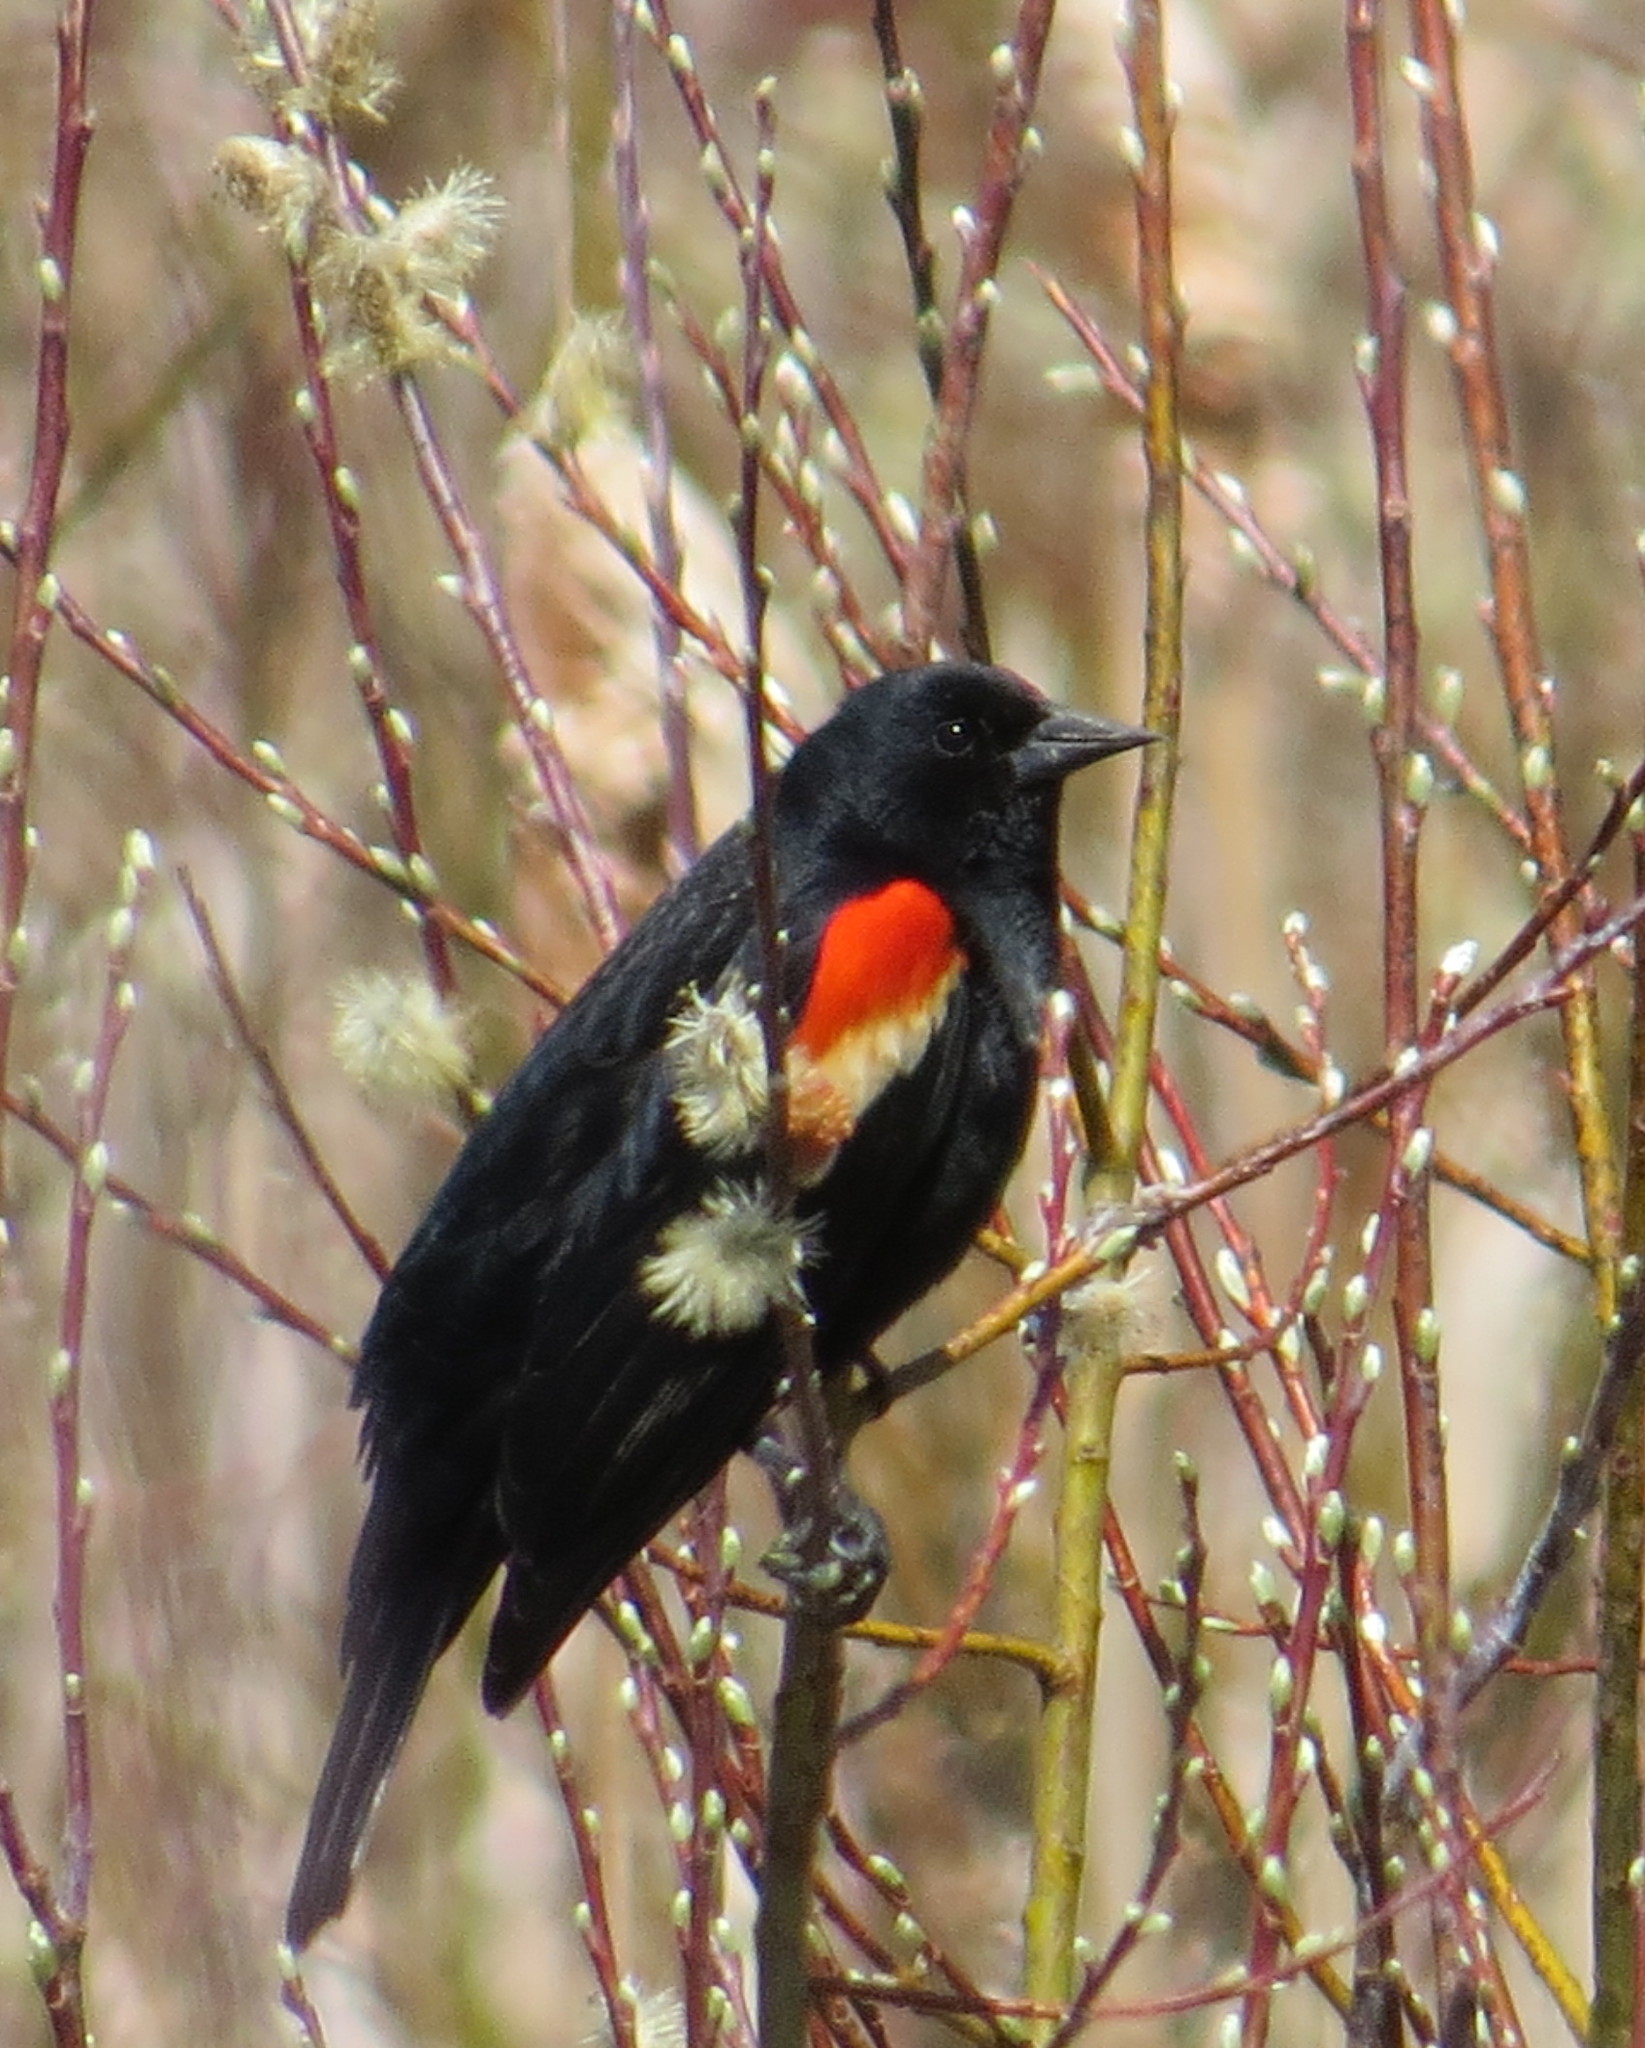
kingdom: Animalia
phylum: Chordata
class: Aves
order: Passeriformes
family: Icteridae
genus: Agelaius
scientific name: Agelaius phoeniceus
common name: Red-winged blackbird
